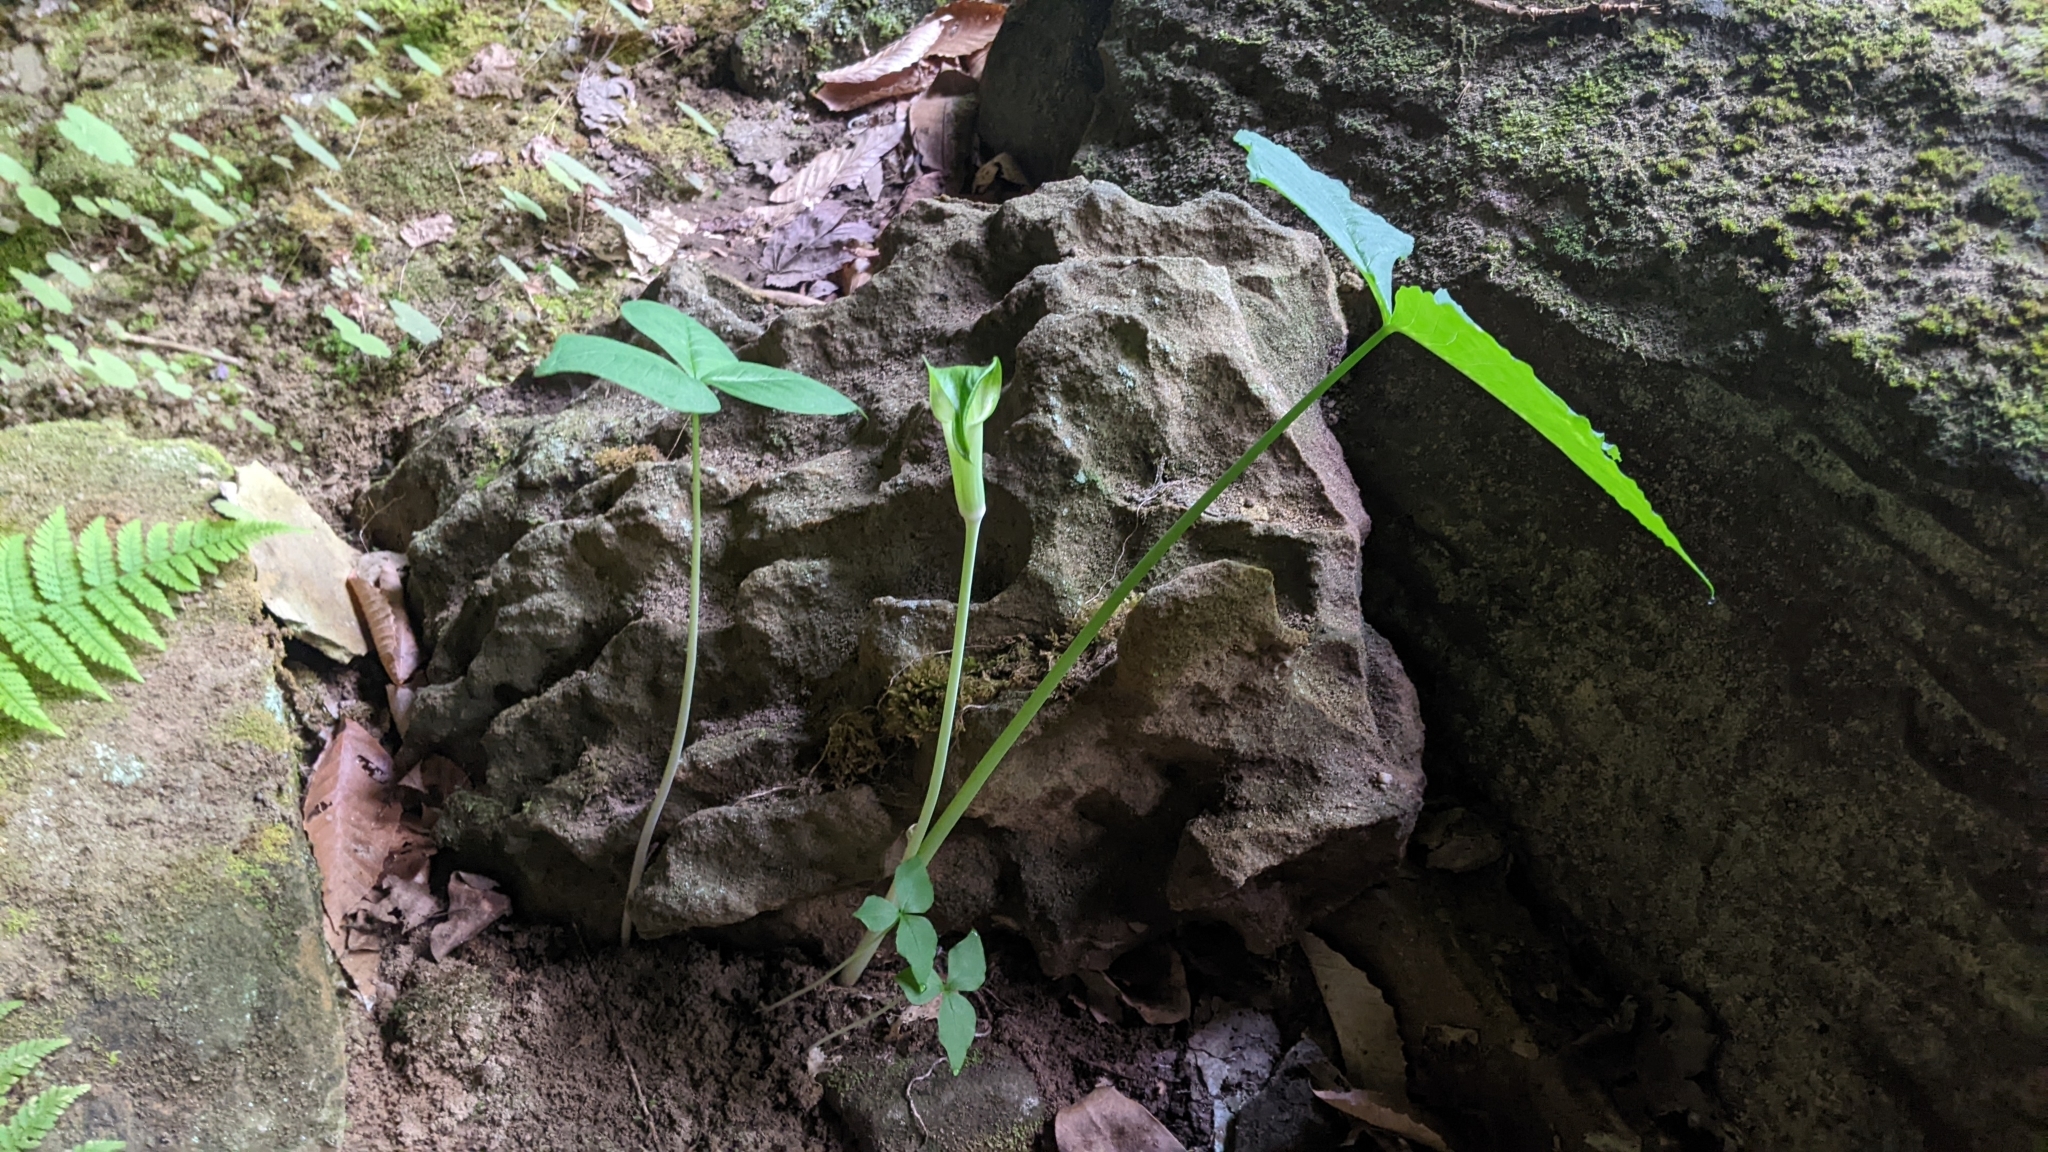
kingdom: Plantae
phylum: Tracheophyta
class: Liliopsida
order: Alismatales
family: Araceae
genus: Arisaema
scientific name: Arisaema triphyllum
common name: Jack-in-the-pulpit
